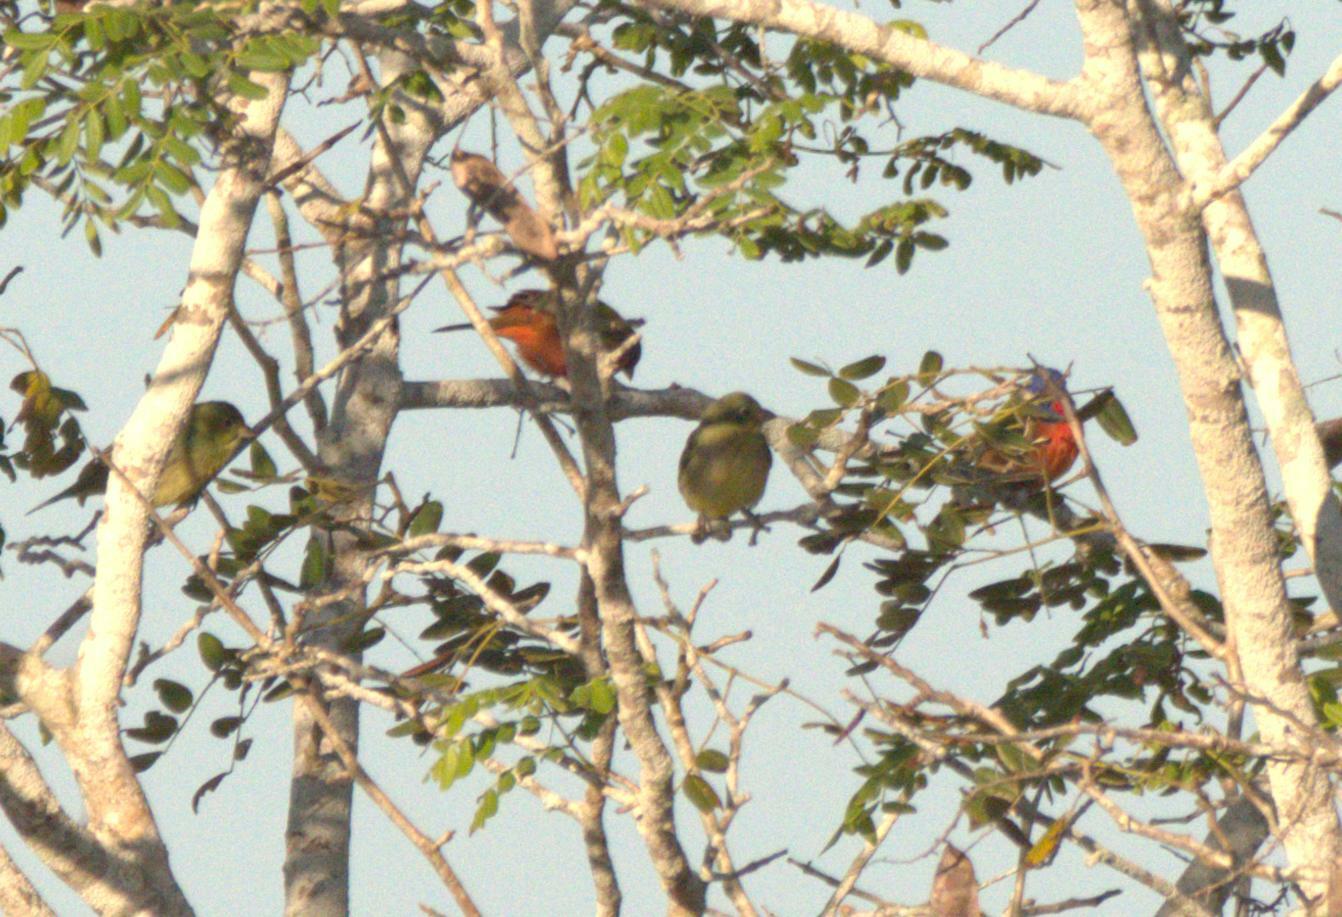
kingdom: Animalia
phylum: Chordata
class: Aves
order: Passeriformes
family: Cardinalidae
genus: Passerina
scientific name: Passerina ciris
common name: Painted bunting
